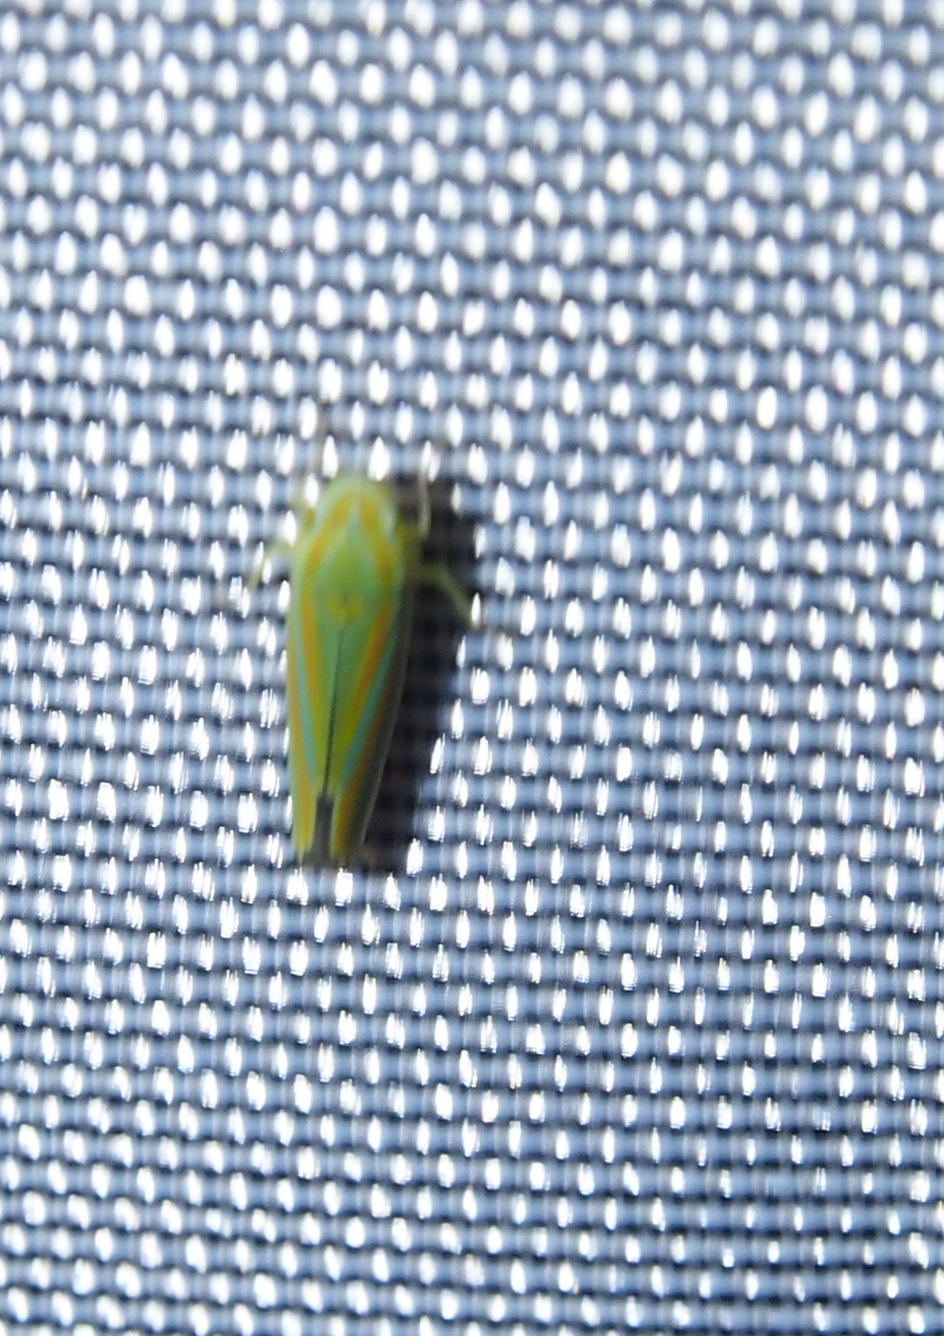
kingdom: Animalia
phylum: Arthropoda
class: Insecta
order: Hemiptera
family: Cicadellidae
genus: Graphocephala
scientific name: Graphocephala versuta
